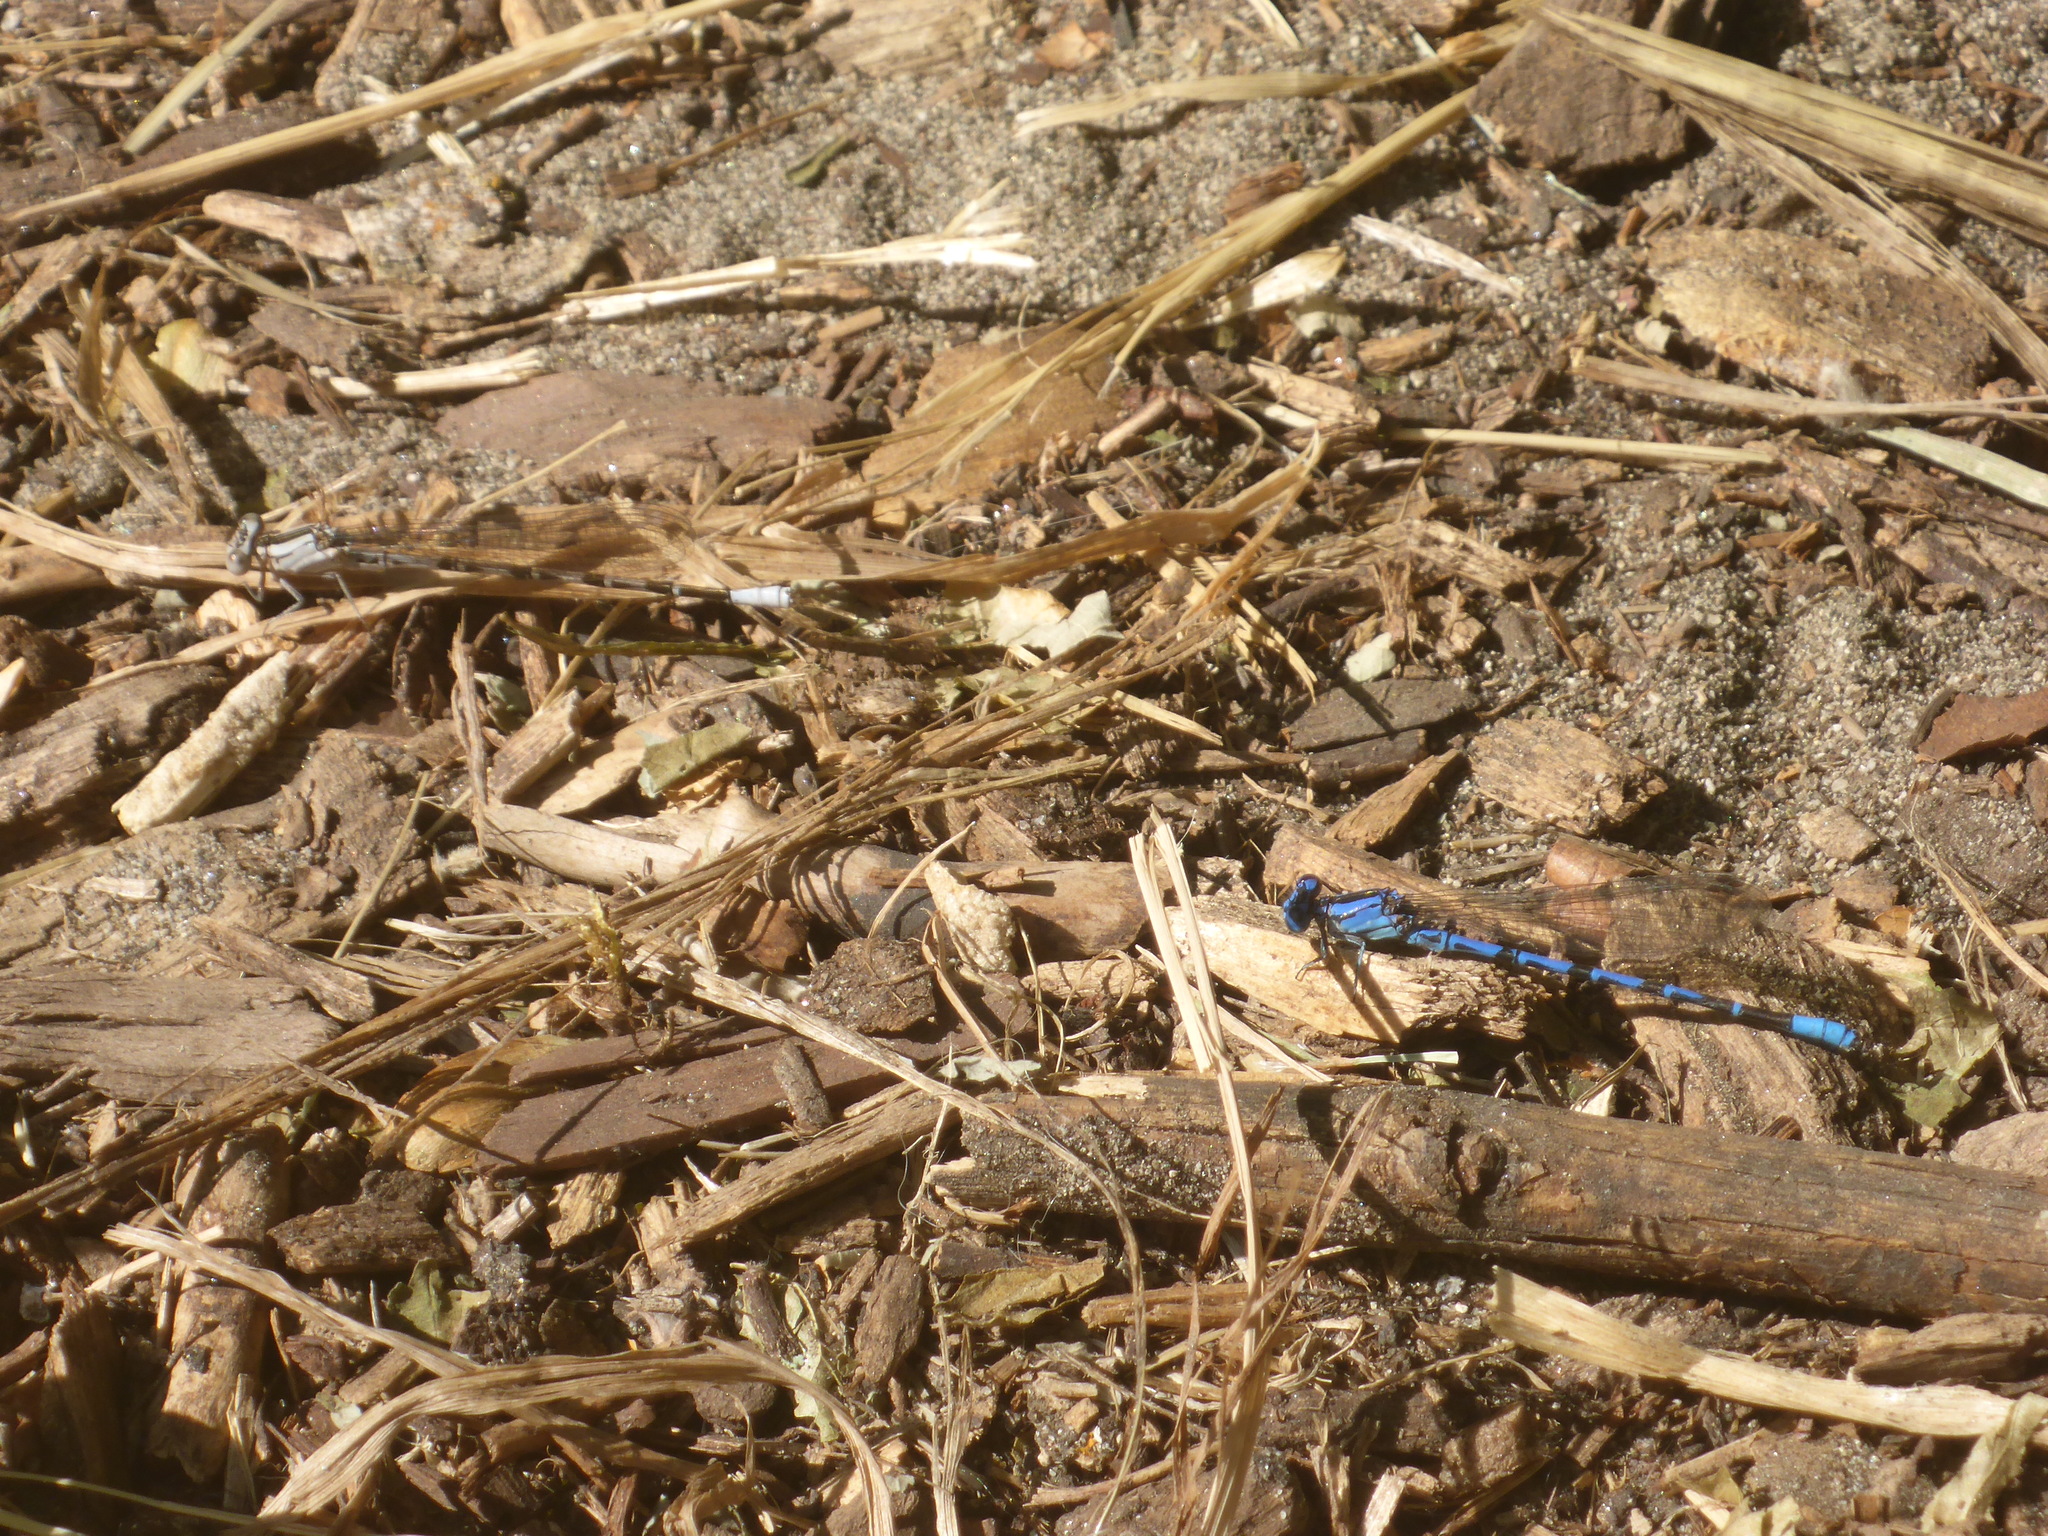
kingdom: Animalia
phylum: Arthropoda
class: Insecta
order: Odonata
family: Coenagrionidae
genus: Argia
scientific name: Argia vivida
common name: Vivid dancer
